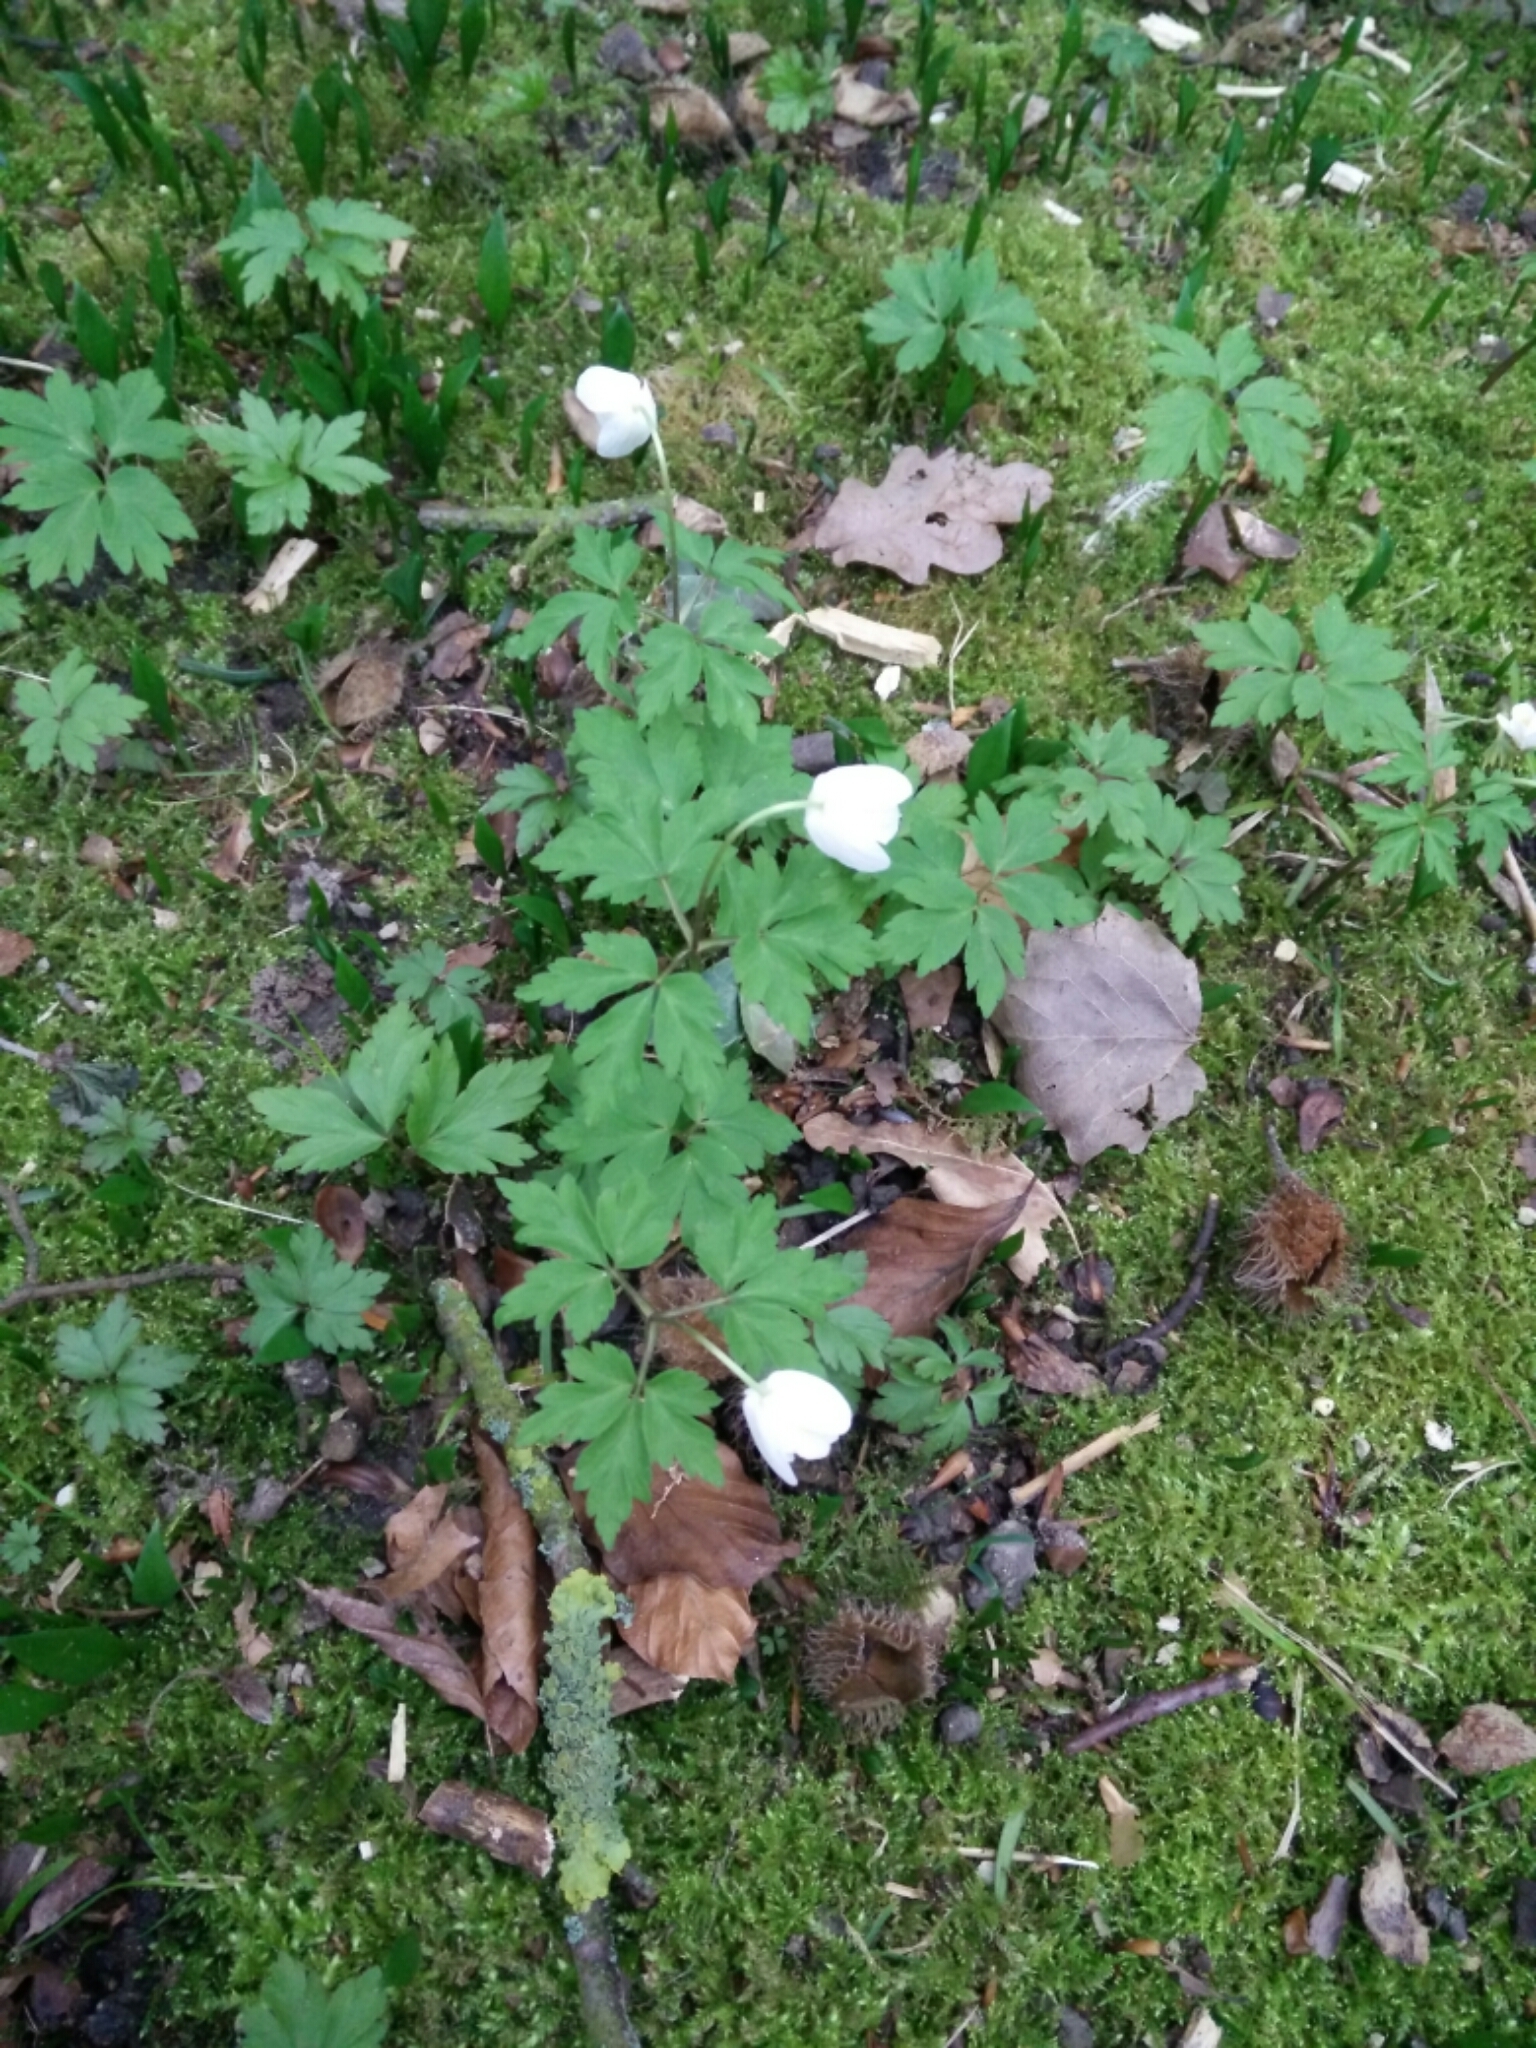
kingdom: Plantae
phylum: Tracheophyta
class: Magnoliopsida
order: Ranunculales
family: Ranunculaceae
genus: Anemone
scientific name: Anemone nemorosa
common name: Wood anemone
